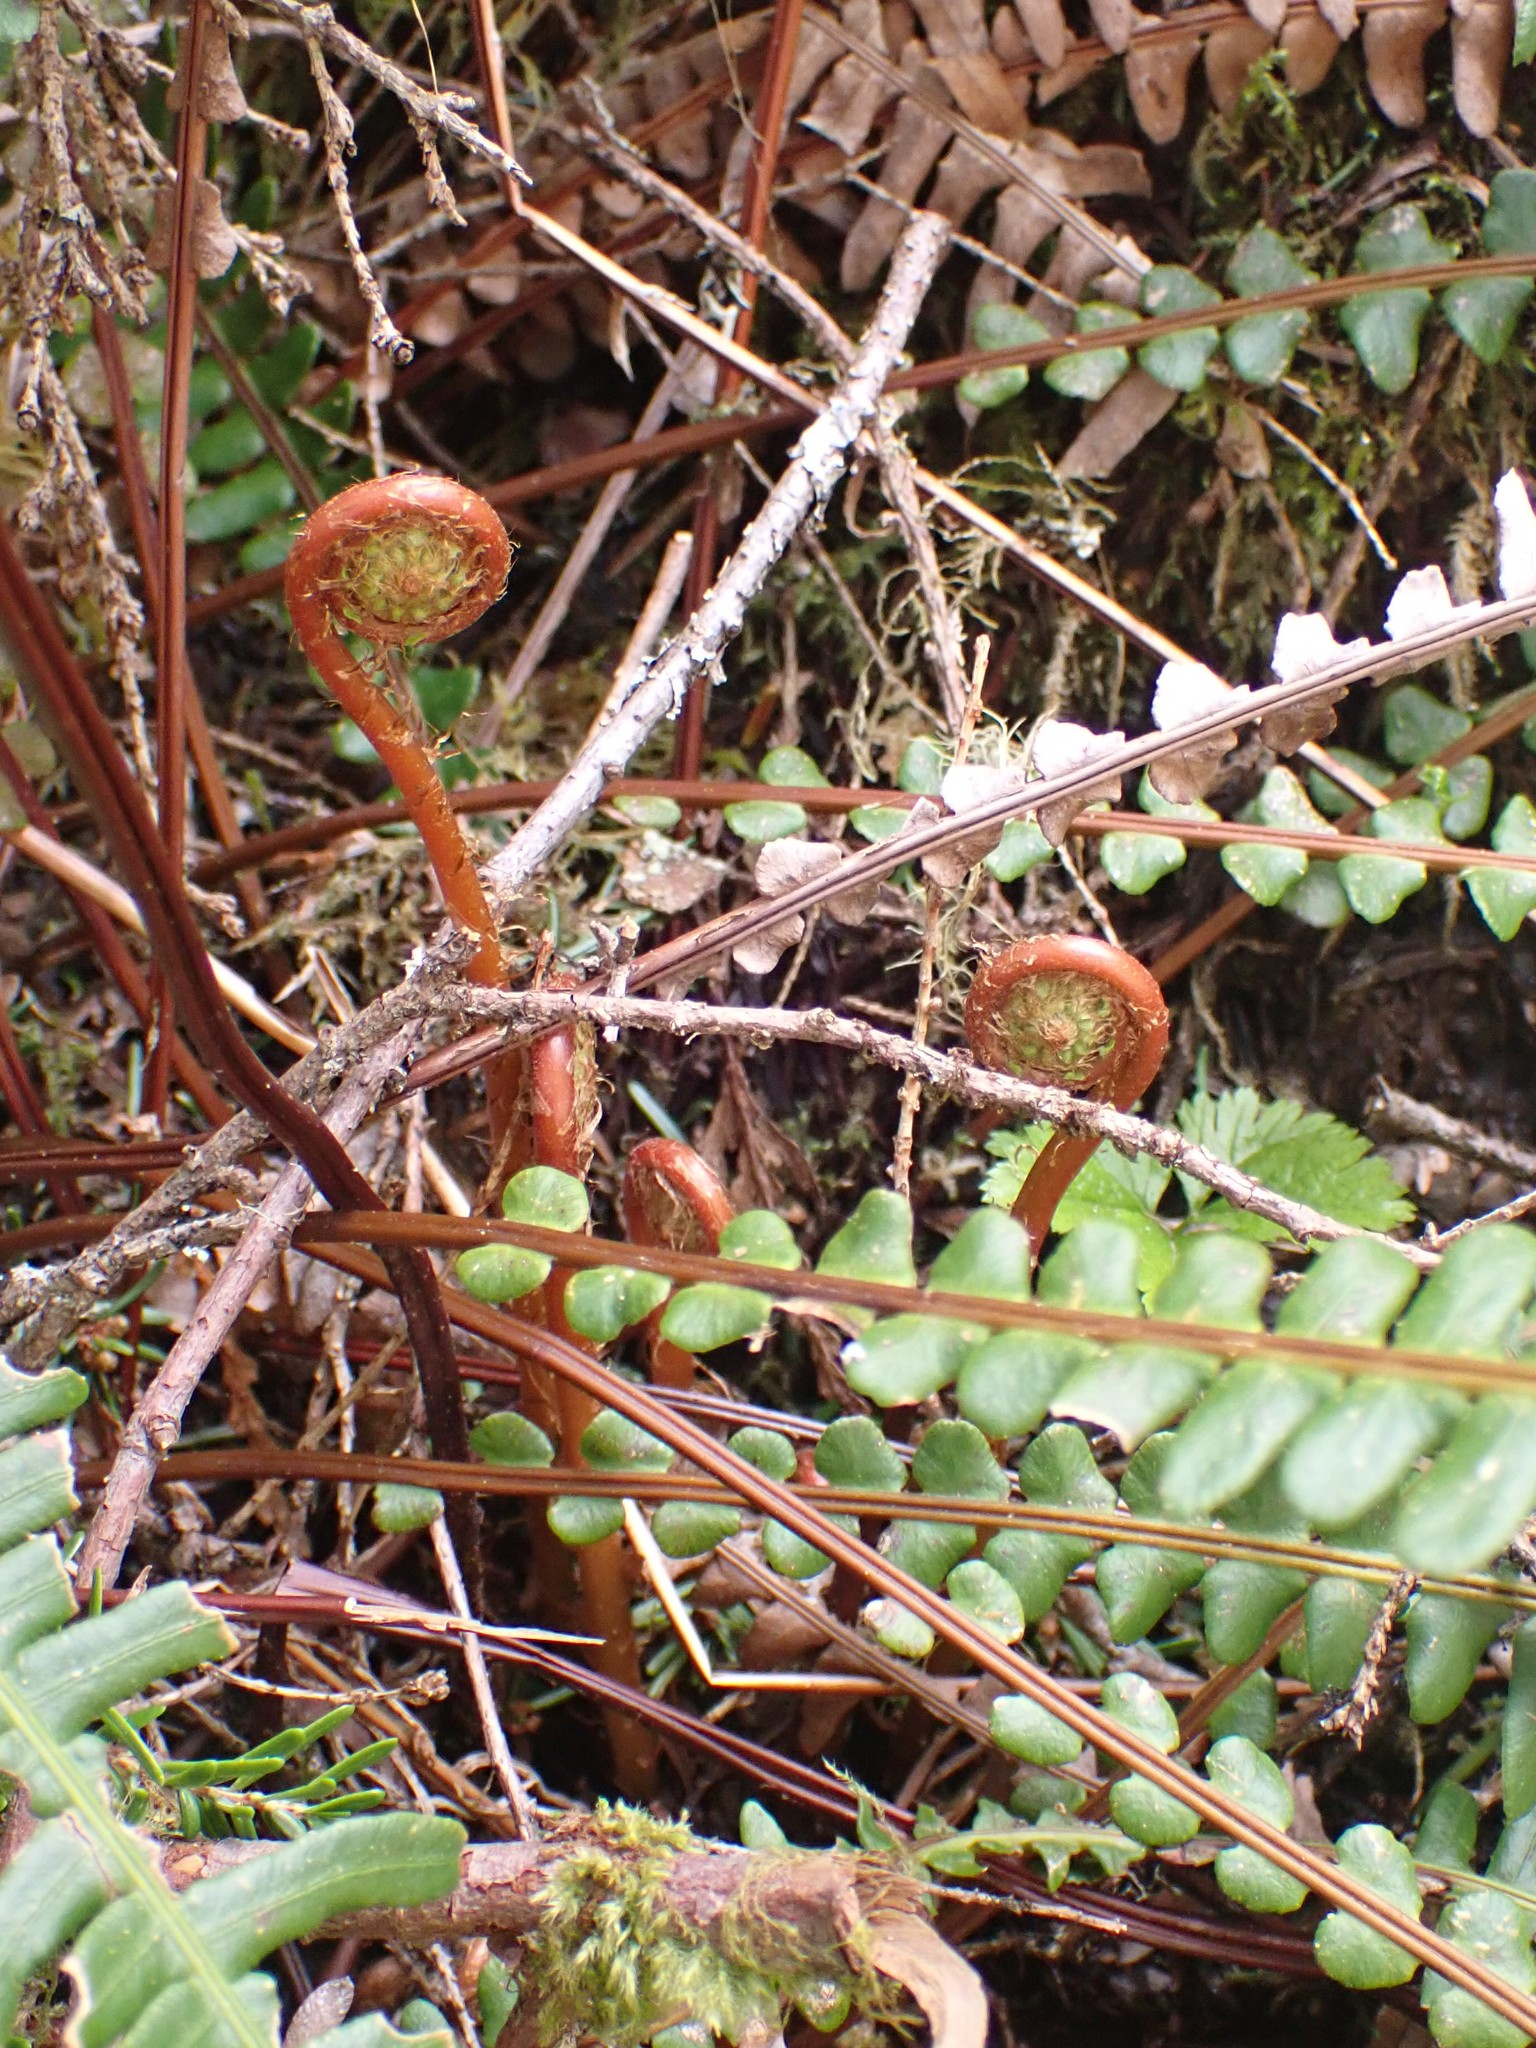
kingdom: Plantae
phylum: Tracheophyta
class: Polypodiopsida
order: Polypodiales
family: Blechnaceae
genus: Struthiopteris
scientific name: Struthiopteris spicant
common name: Deer fern
